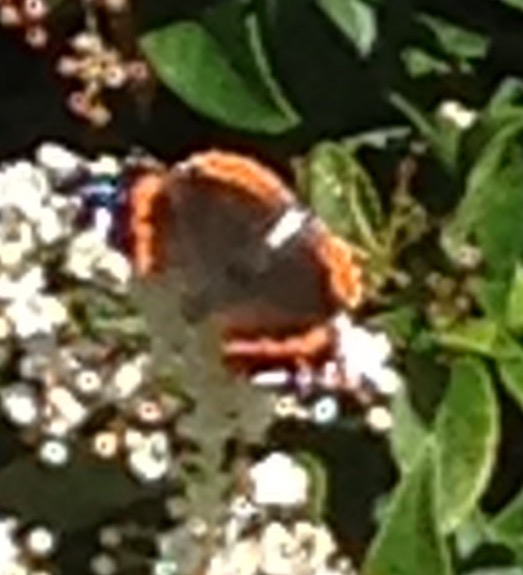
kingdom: Animalia
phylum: Arthropoda
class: Insecta
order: Lepidoptera
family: Nymphalidae
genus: Vanessa
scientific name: Vanessa atalanta
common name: Red admiral
